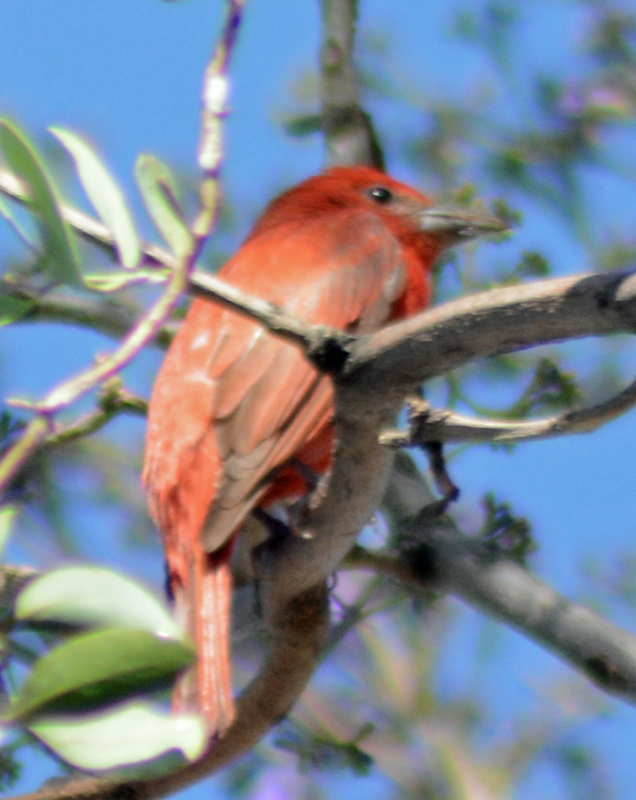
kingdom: Animalia
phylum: Chordata
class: Aves
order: Passeriformes
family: Cardinalidae
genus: Piranga
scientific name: Piranga flava
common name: Red tanager
